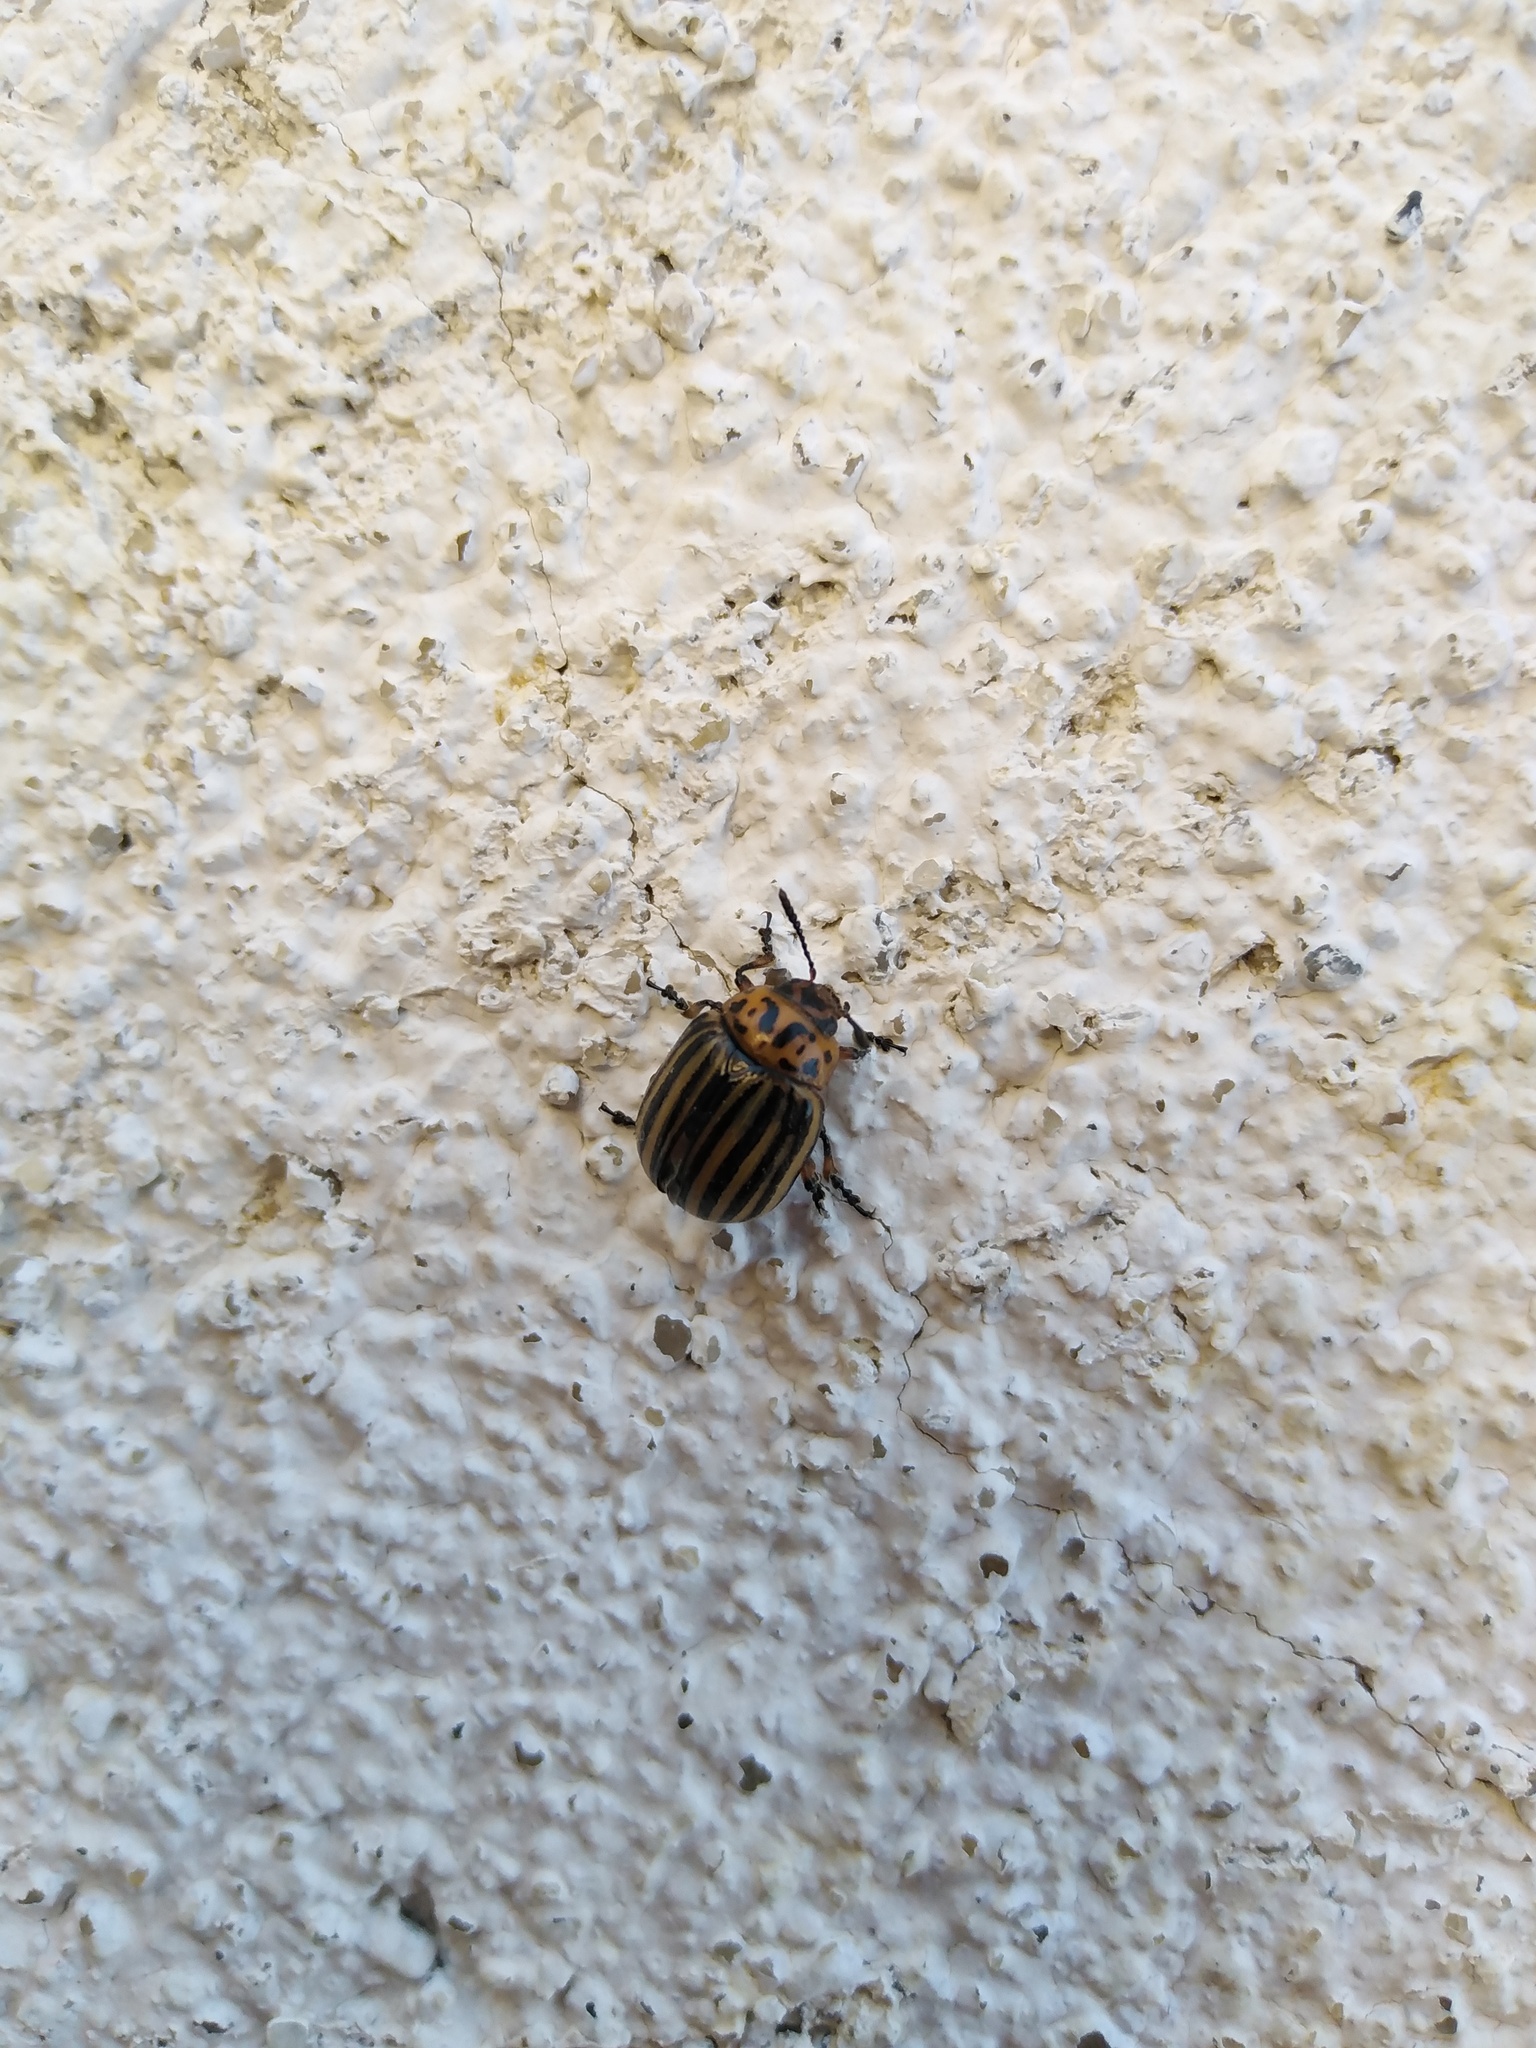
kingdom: Animalia
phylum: Arthropoda
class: Insecta
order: Coleoptera
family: Chrysomelidae
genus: Leptinotarsa
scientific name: Leptinotarsa decemlineata
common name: Colorado potato beetle
